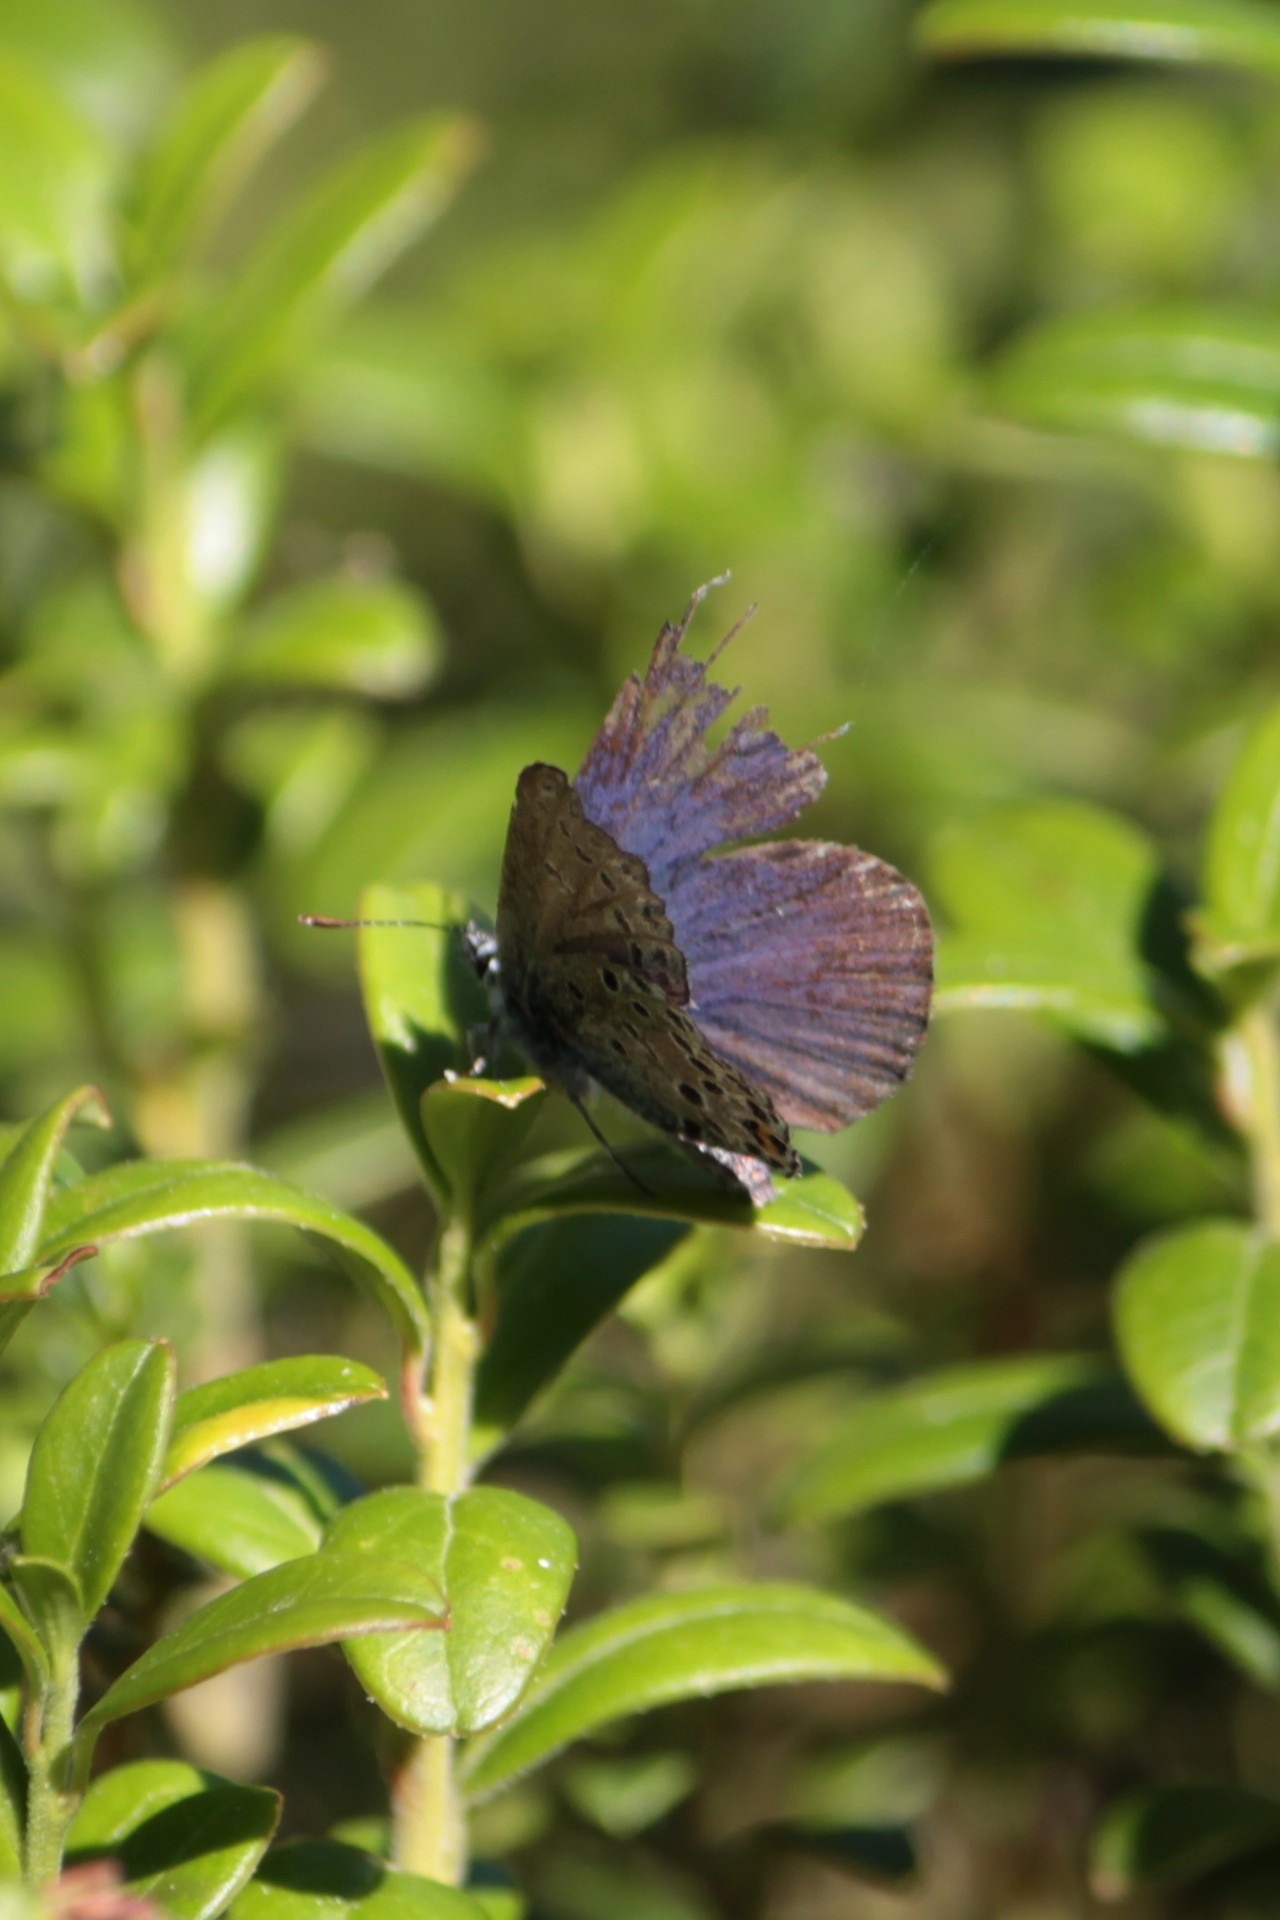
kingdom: Animalia
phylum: Arthropoda
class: Insecta
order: Lepidoptera
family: Lycaenidae
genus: Vacciniina
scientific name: Vacciniina optilete
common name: Cranberry blue
